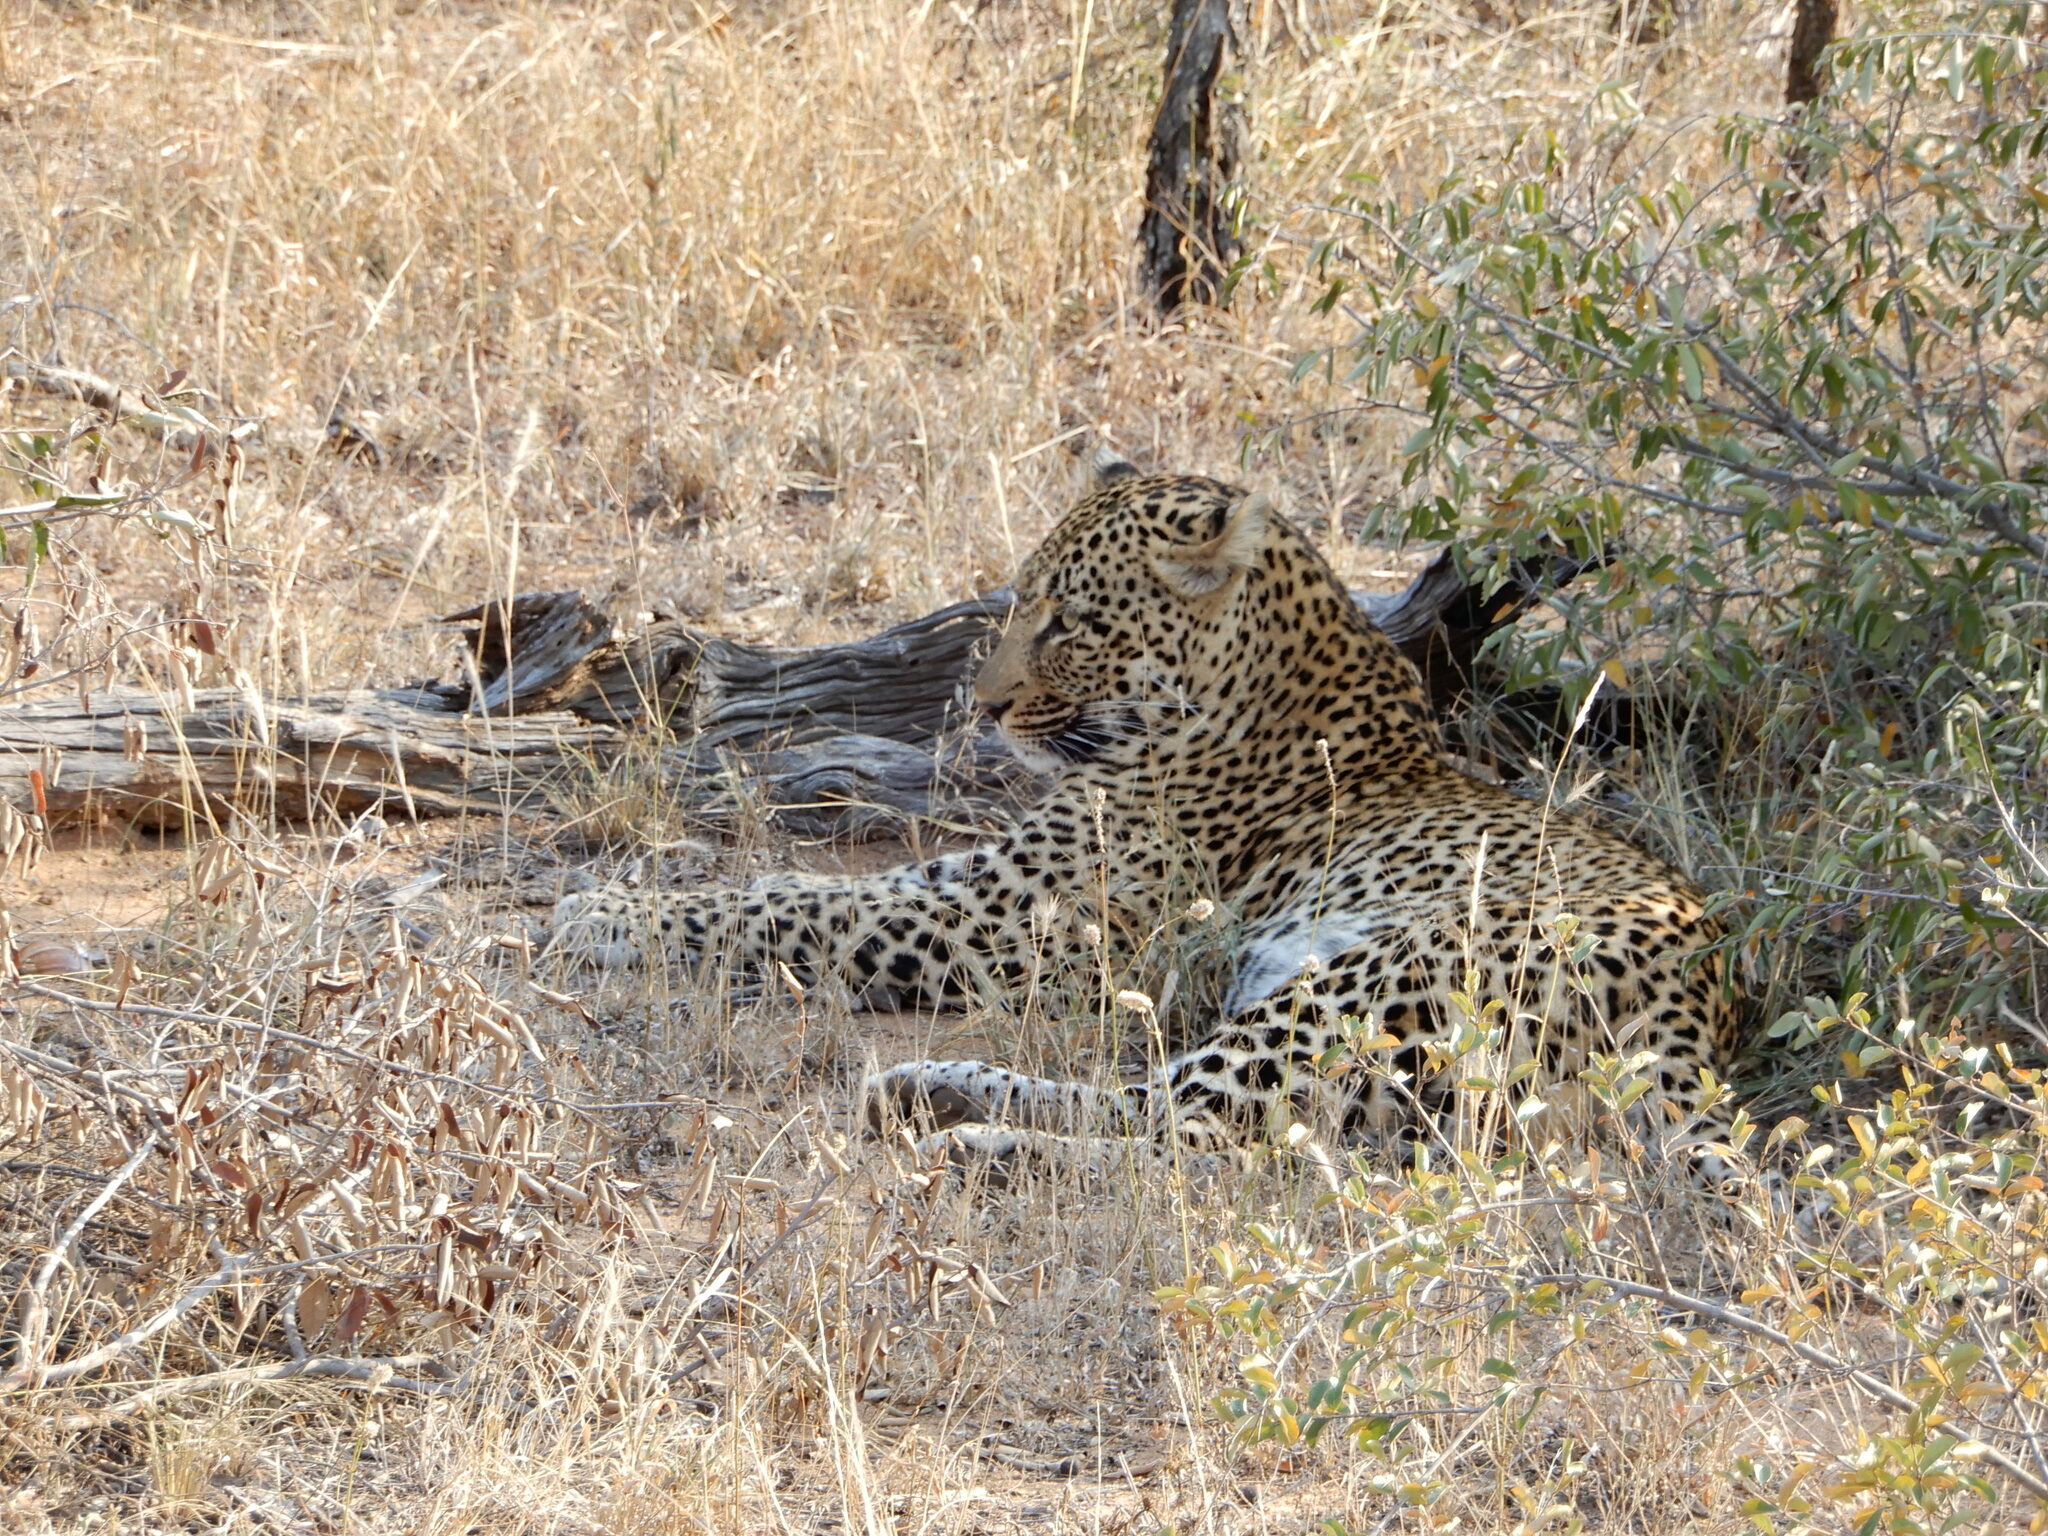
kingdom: Animalia
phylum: Chordata
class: Mammalia
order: Carnivora
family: Felidae
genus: Panthera
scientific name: Panthera pardus
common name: Leopard
